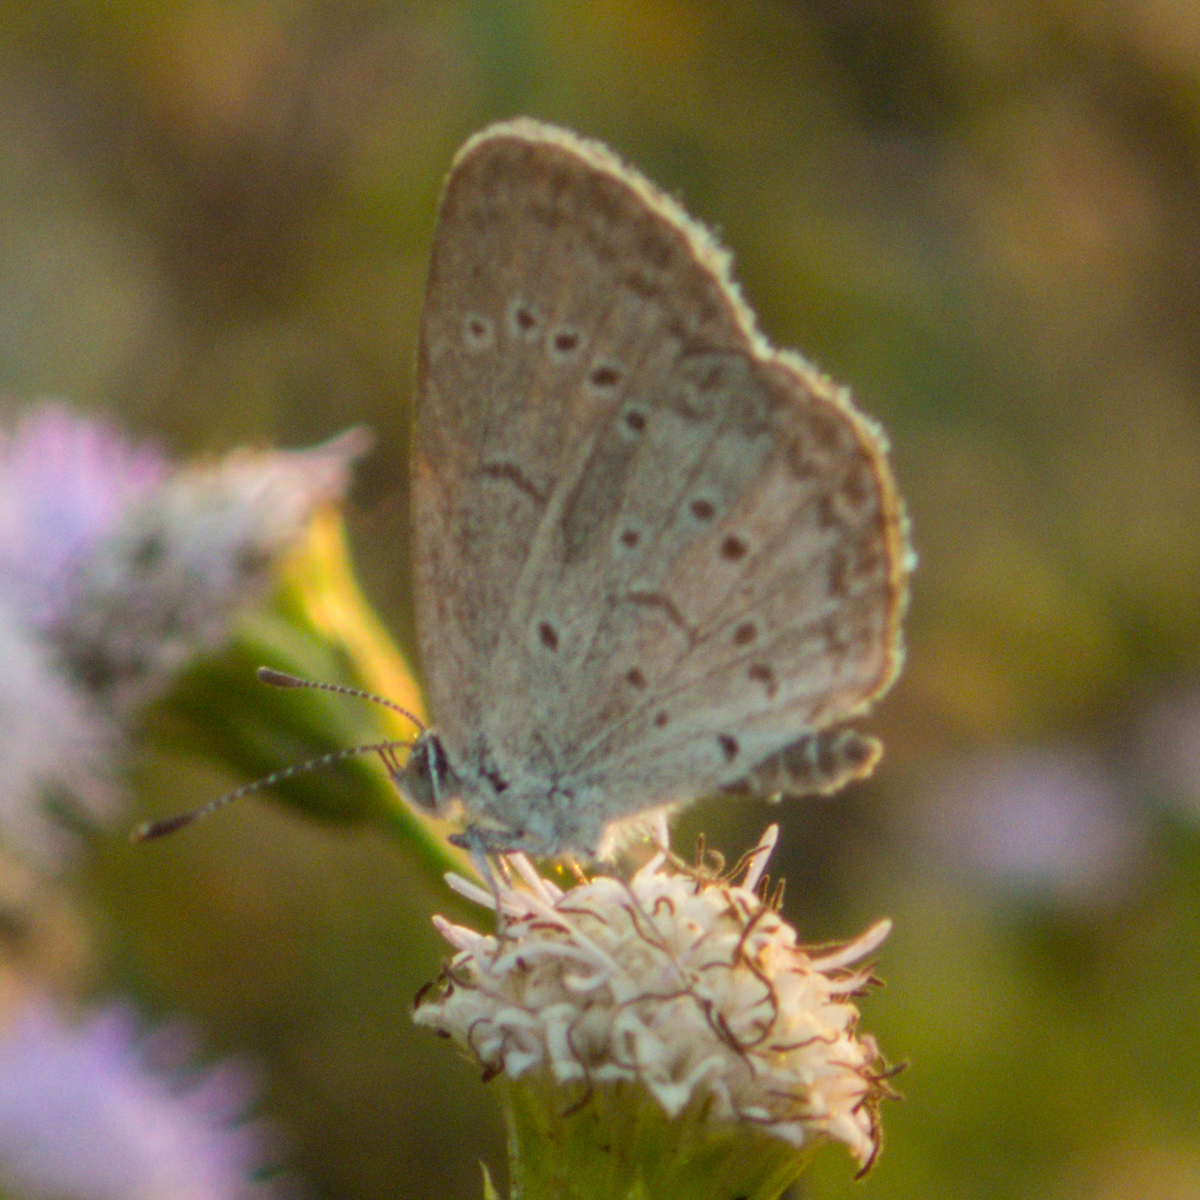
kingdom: Animalia
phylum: Arthropoda
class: Insecta
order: Lepidoptera
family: Lycaenidae
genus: Zizeeria
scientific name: Zizeeria karsandra
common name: Dark grass blue
